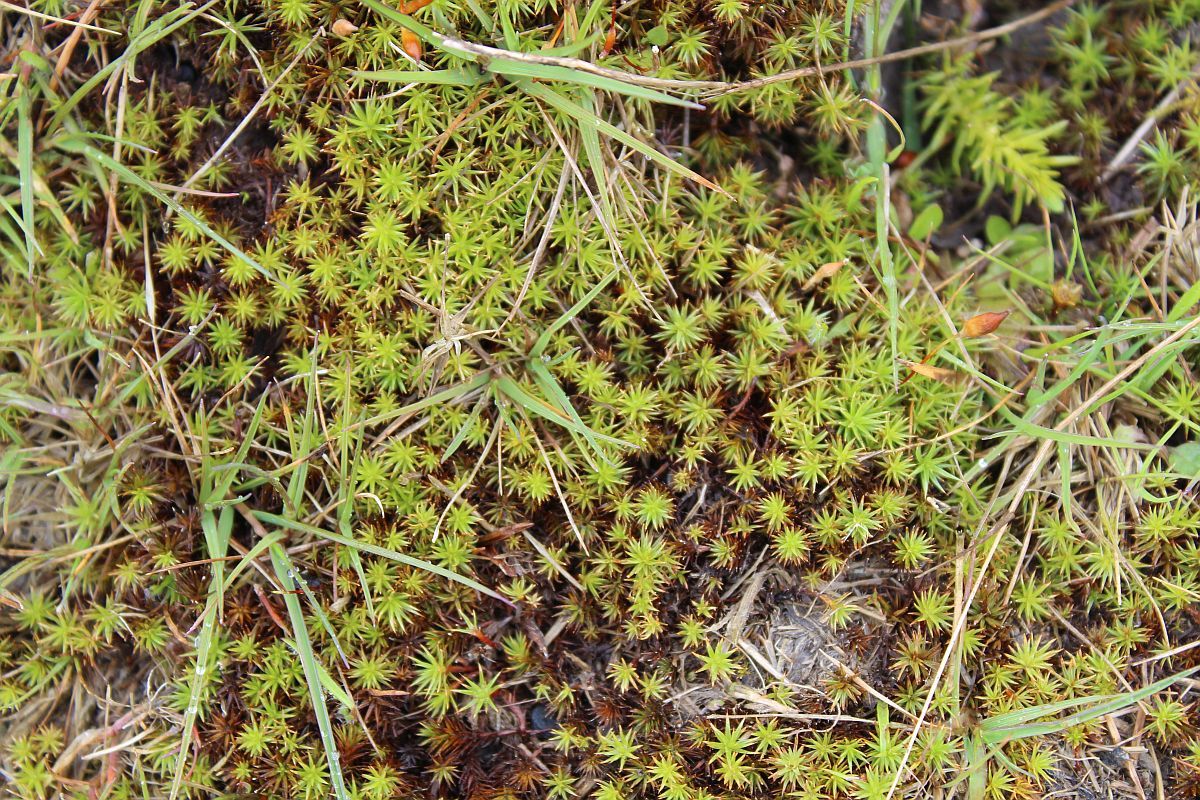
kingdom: Plantae
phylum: Bryophyta
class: Polytrichopsida
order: Polytrichales
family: Polytrichaceae
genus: Polytrichum
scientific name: Polytrichum juniperinum
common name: Juniper haircap moss
